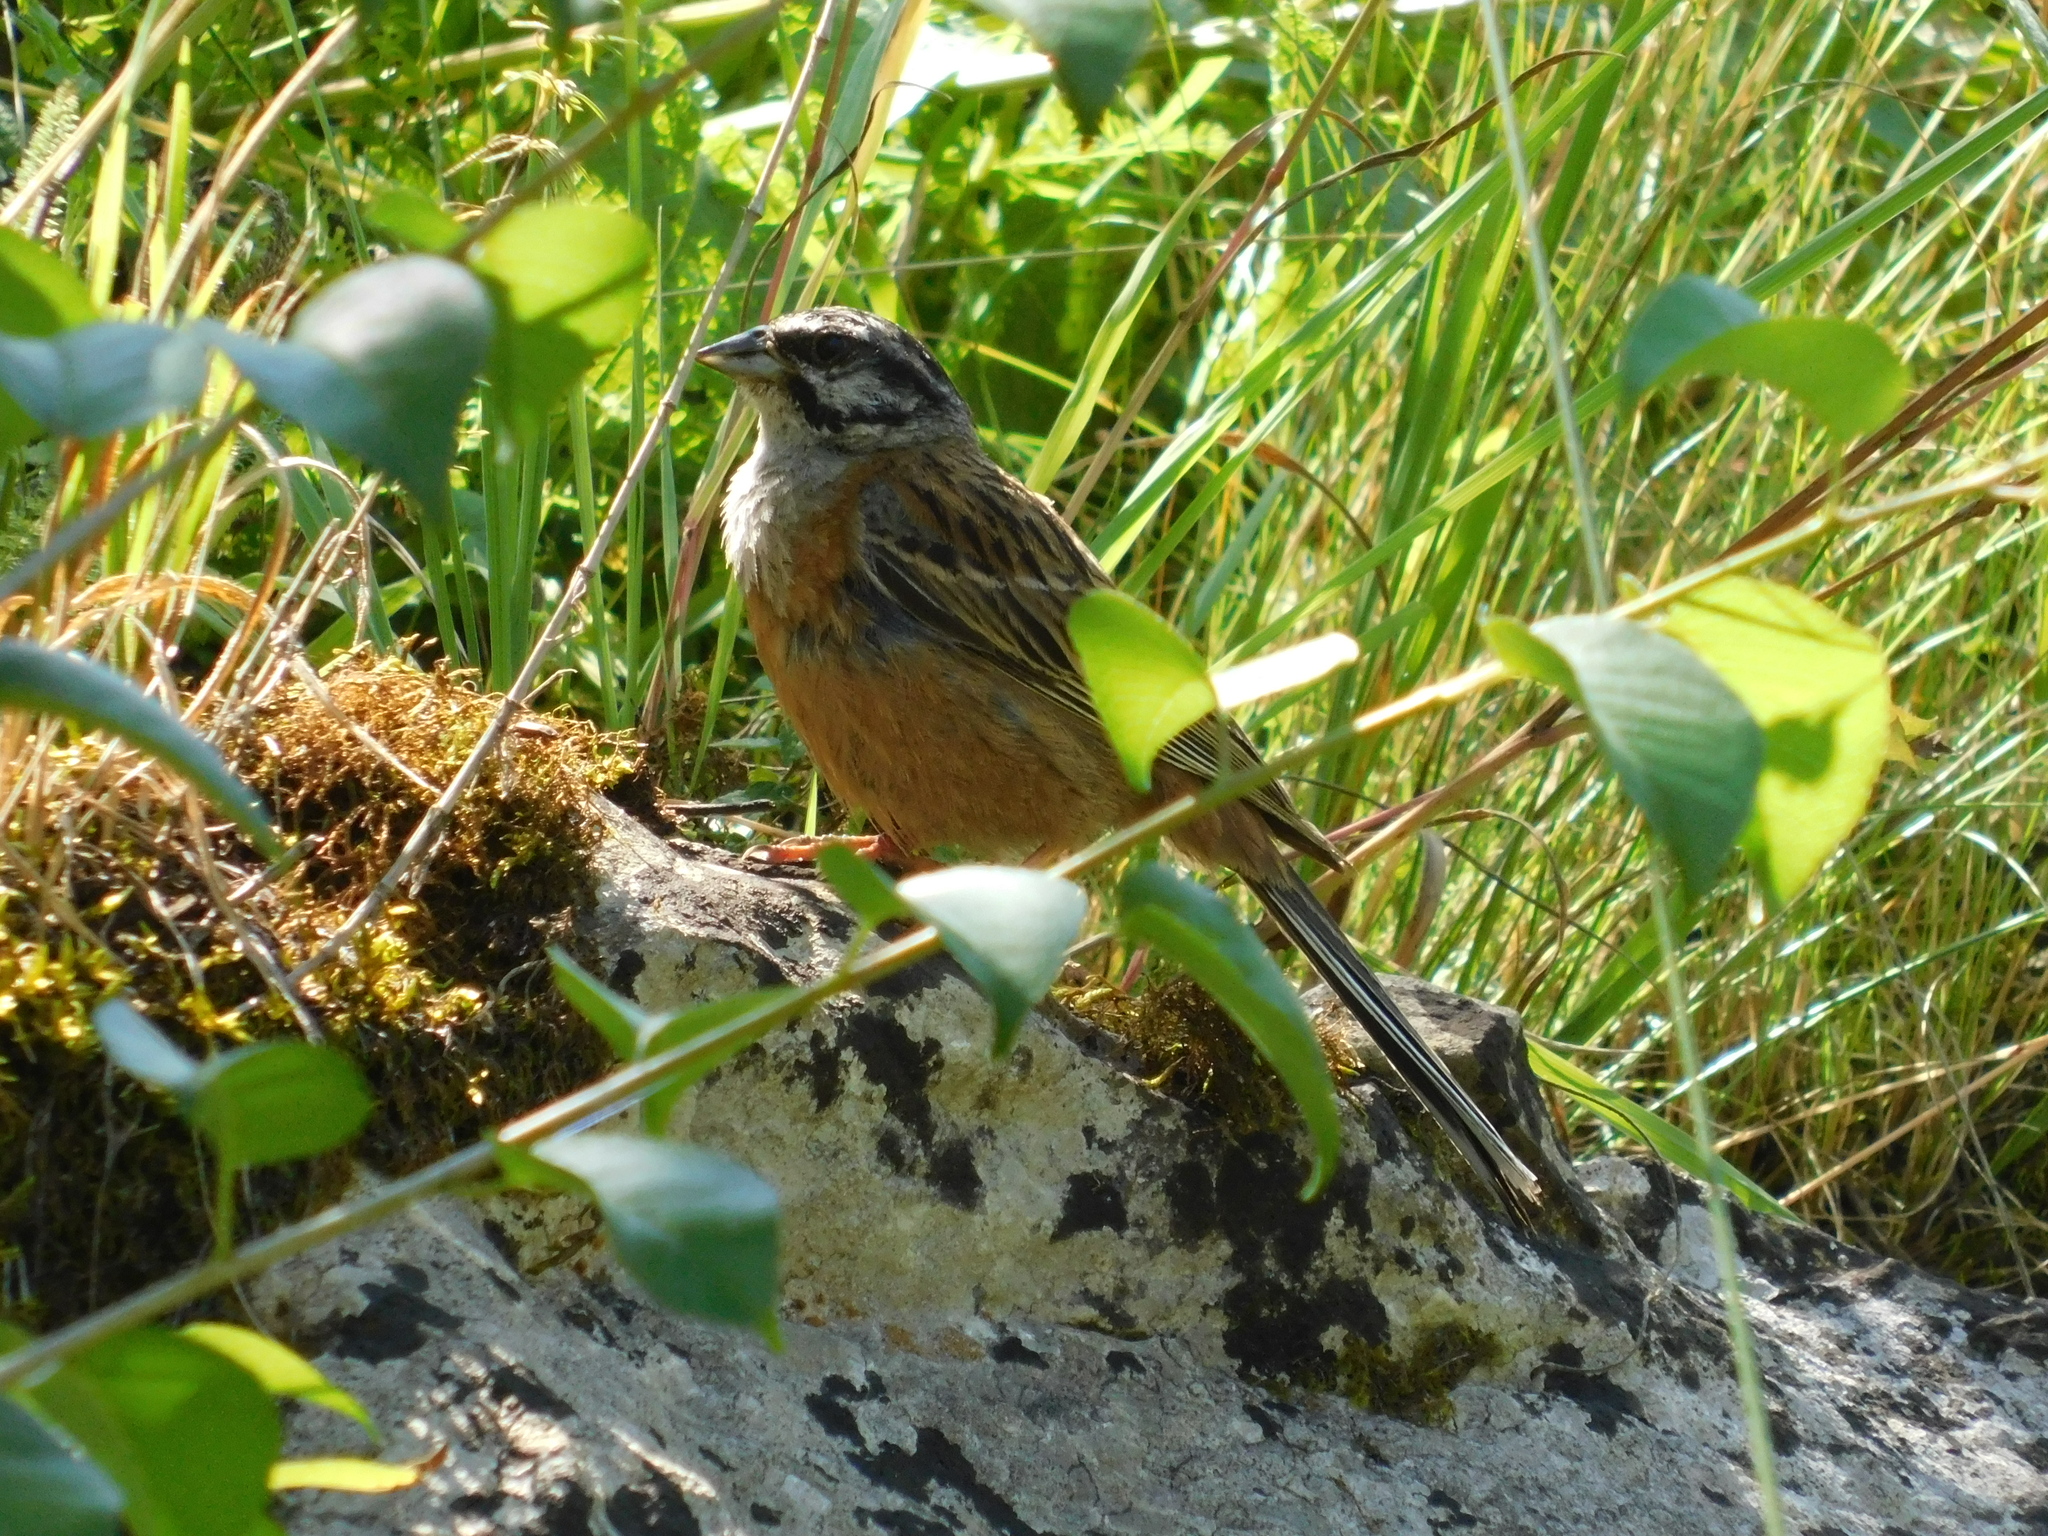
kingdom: Animalia
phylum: Chordata
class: Aves
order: Passeriformes
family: Emberizidae
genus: Emberiza
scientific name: Emberiza cia
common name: Rock bunting
